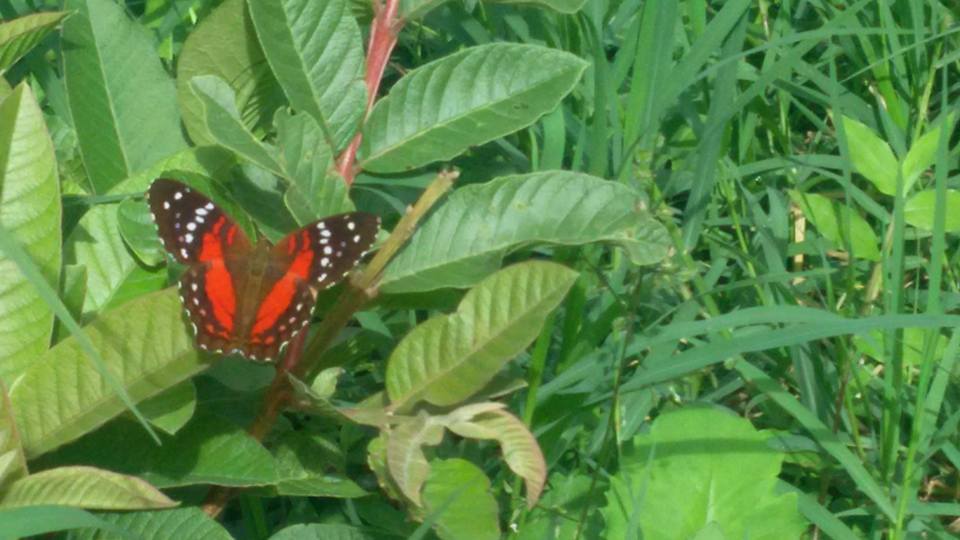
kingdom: Animalia
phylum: Arthropoda
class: Insecta
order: Lepidoptera
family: Nymphalidae
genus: Anartia
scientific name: Anartia amathea
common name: Red peacock
